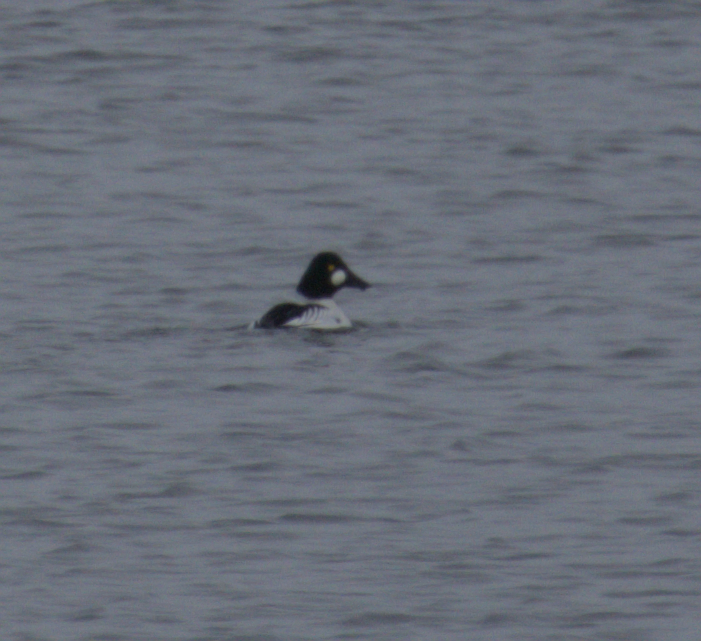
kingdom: Animalia
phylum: Chordata
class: Aves
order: Anseriformes
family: Anatidae
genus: Bucephala
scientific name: Bucephala clangula
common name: Common goldeneye
